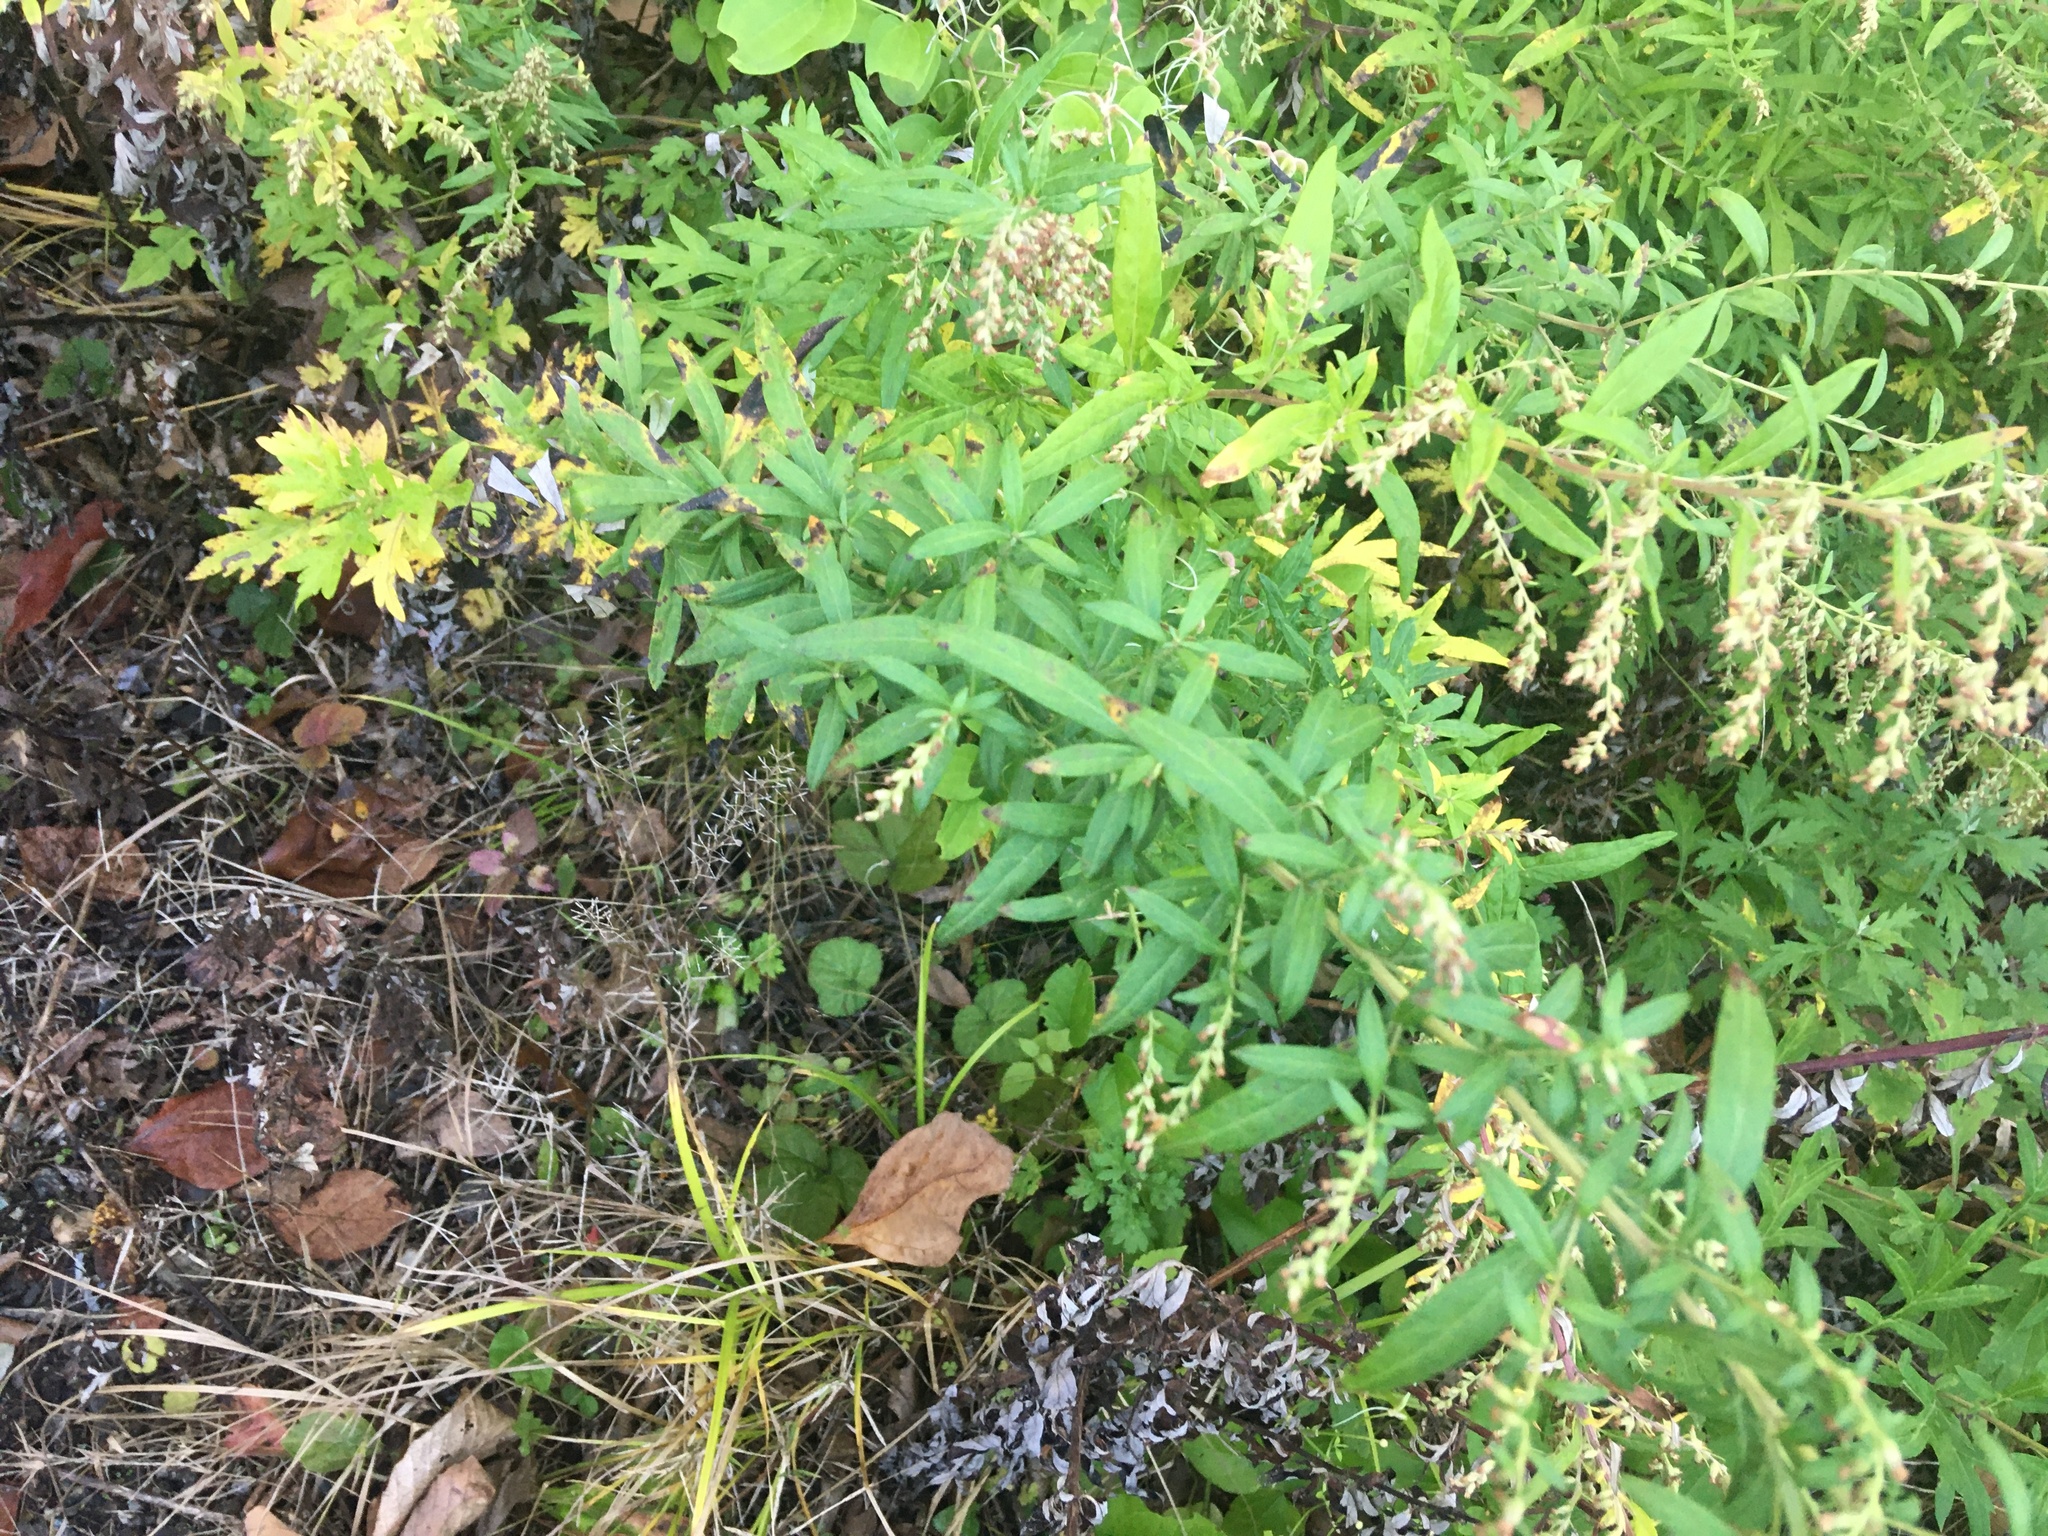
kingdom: Plantae
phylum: Tracheophyta
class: Magnoliopsida
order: Asterales
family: Asteraceae
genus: Artemisia
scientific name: Artemisia vulgaris
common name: Mugwort
